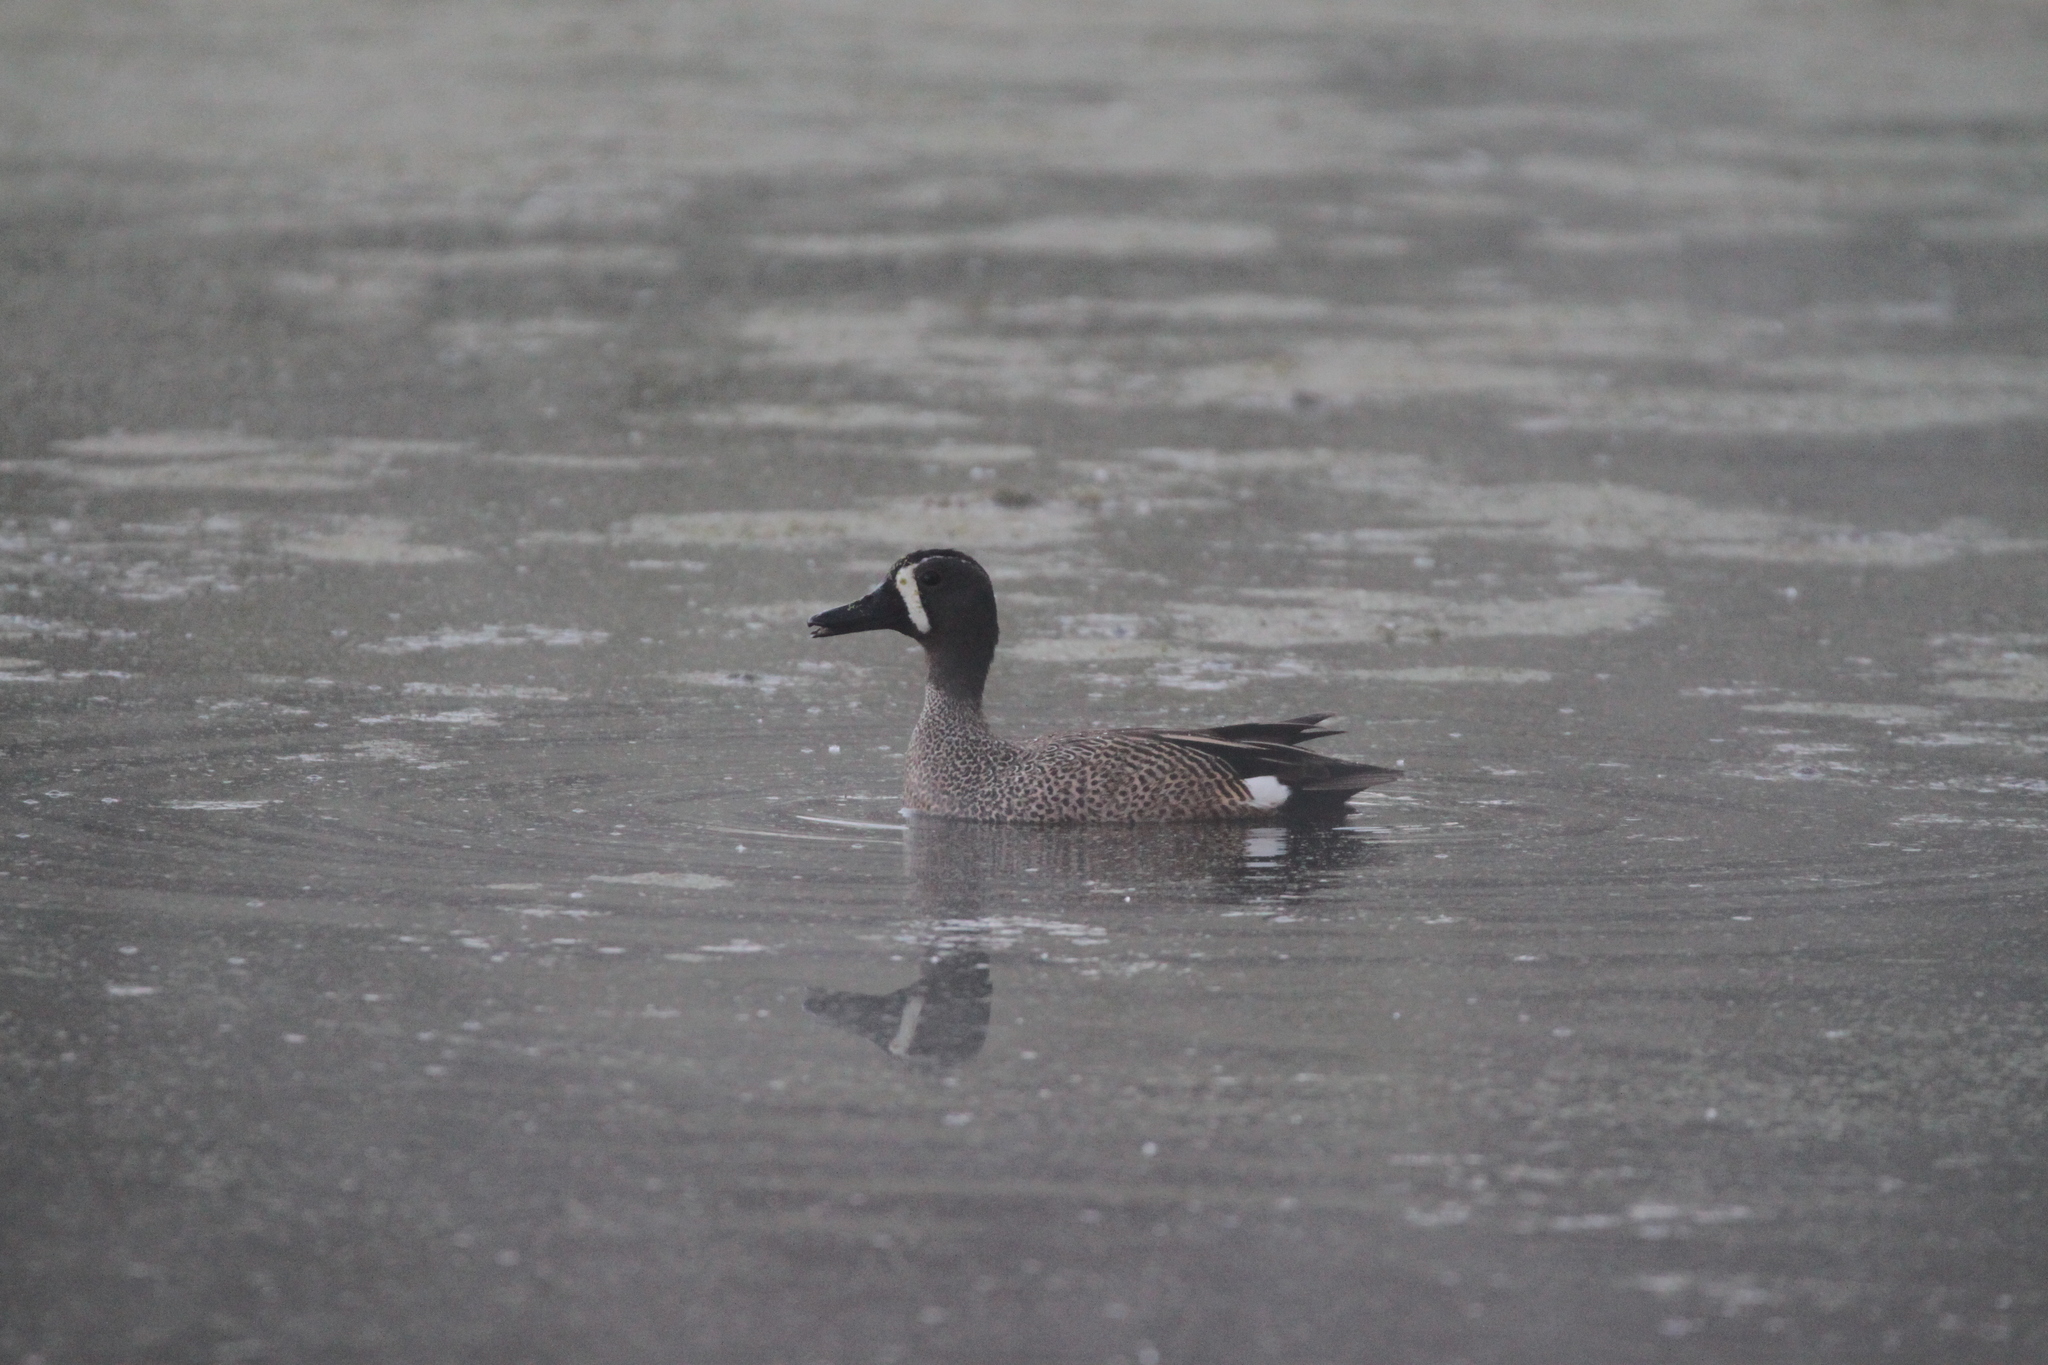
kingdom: Animalia
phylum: Chordata
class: Aves
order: Anseriformes
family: Anatidae
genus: Spatula
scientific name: Spatula discors
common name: Blue-winged teal
